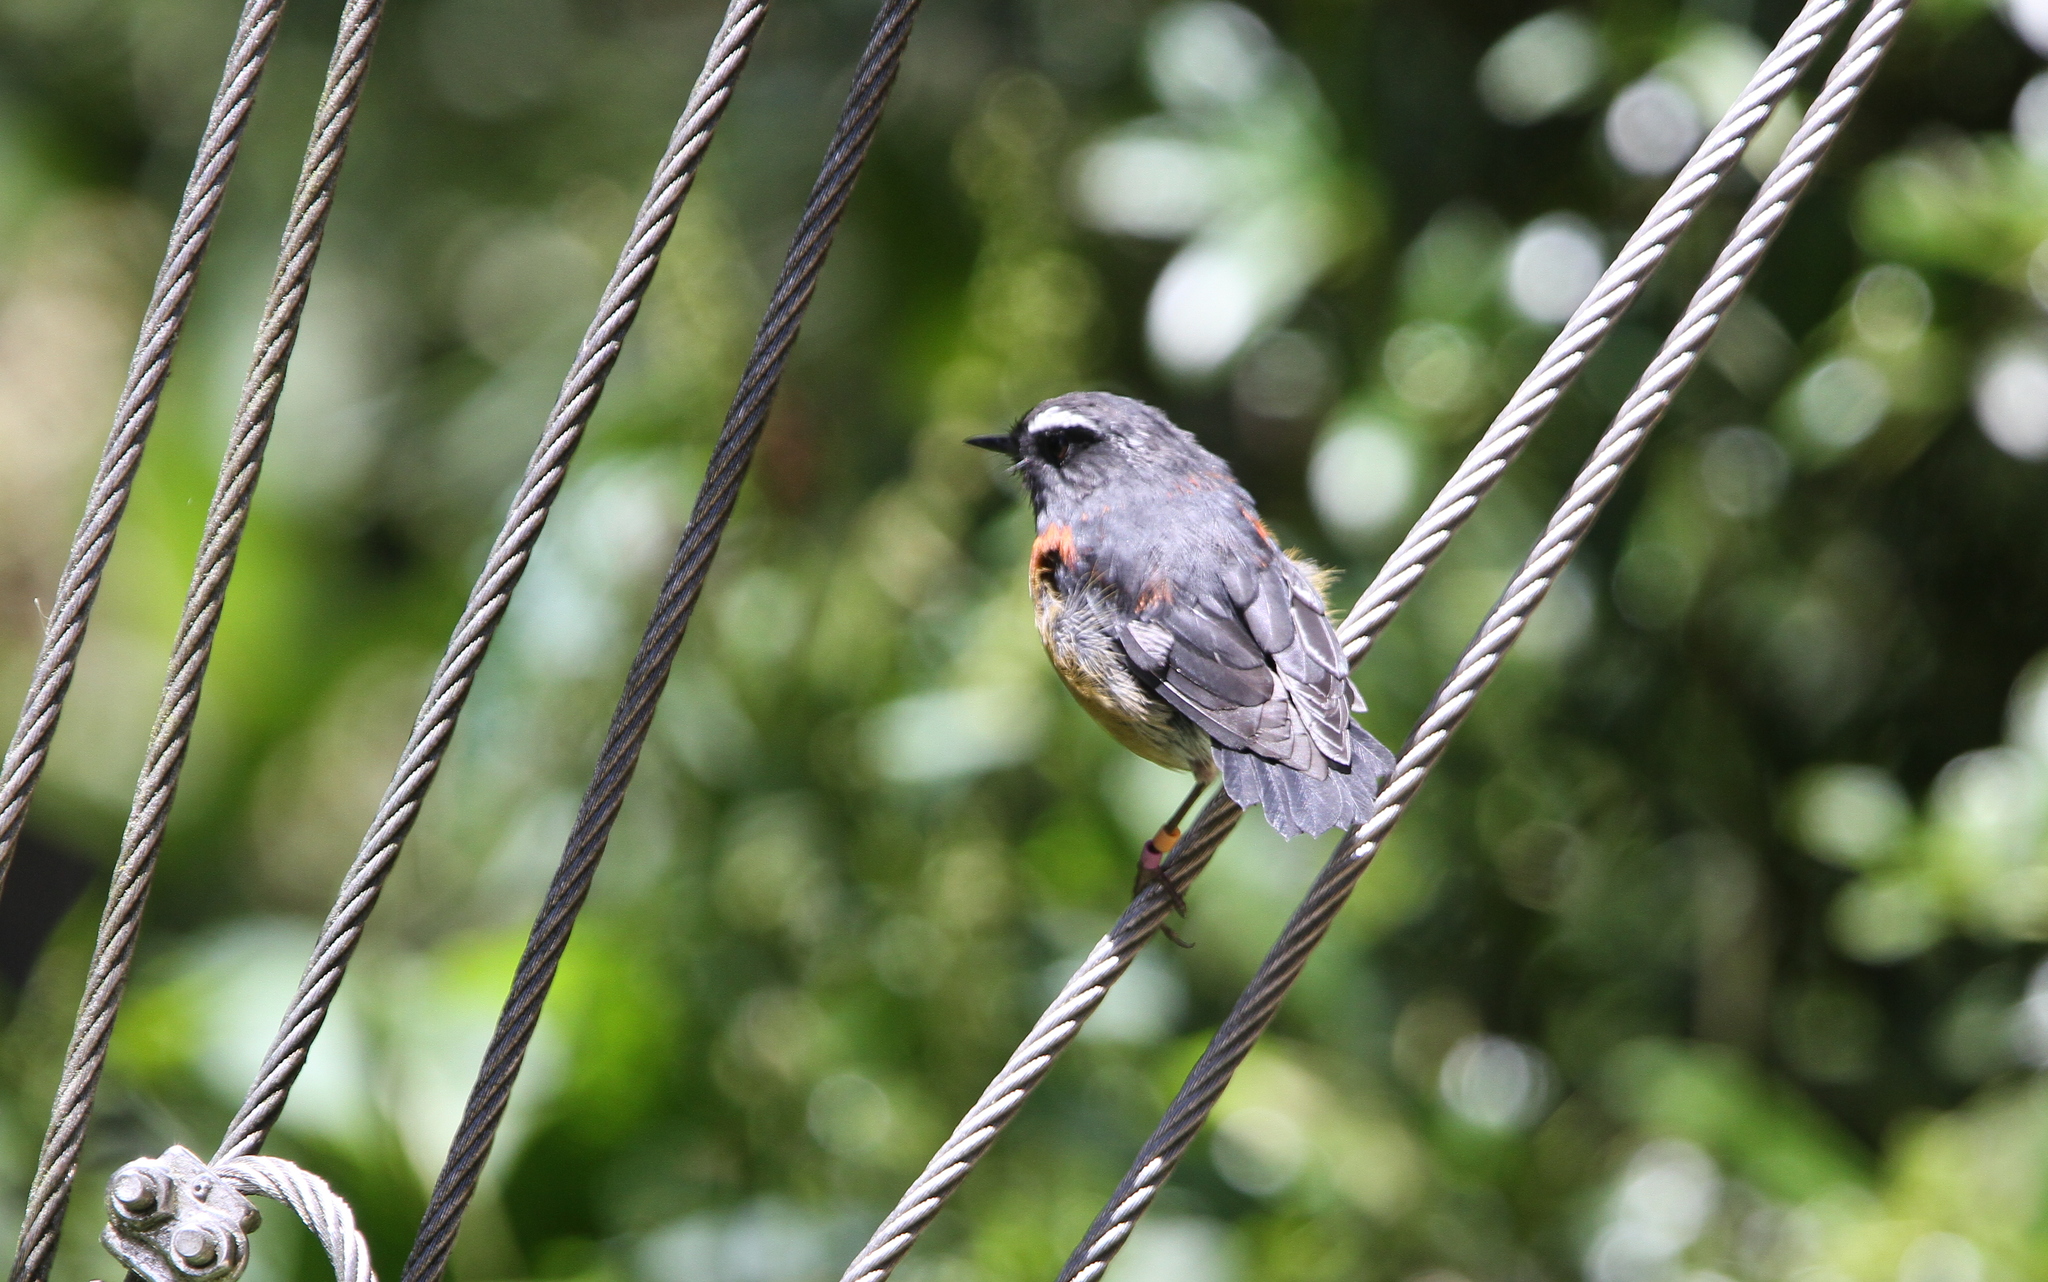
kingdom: Animalia
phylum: Chordata
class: Aves
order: Passeriformes
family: Muscicapidae
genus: Tarsiger
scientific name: Tarsiger johnstoniae
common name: Collared bush robin
